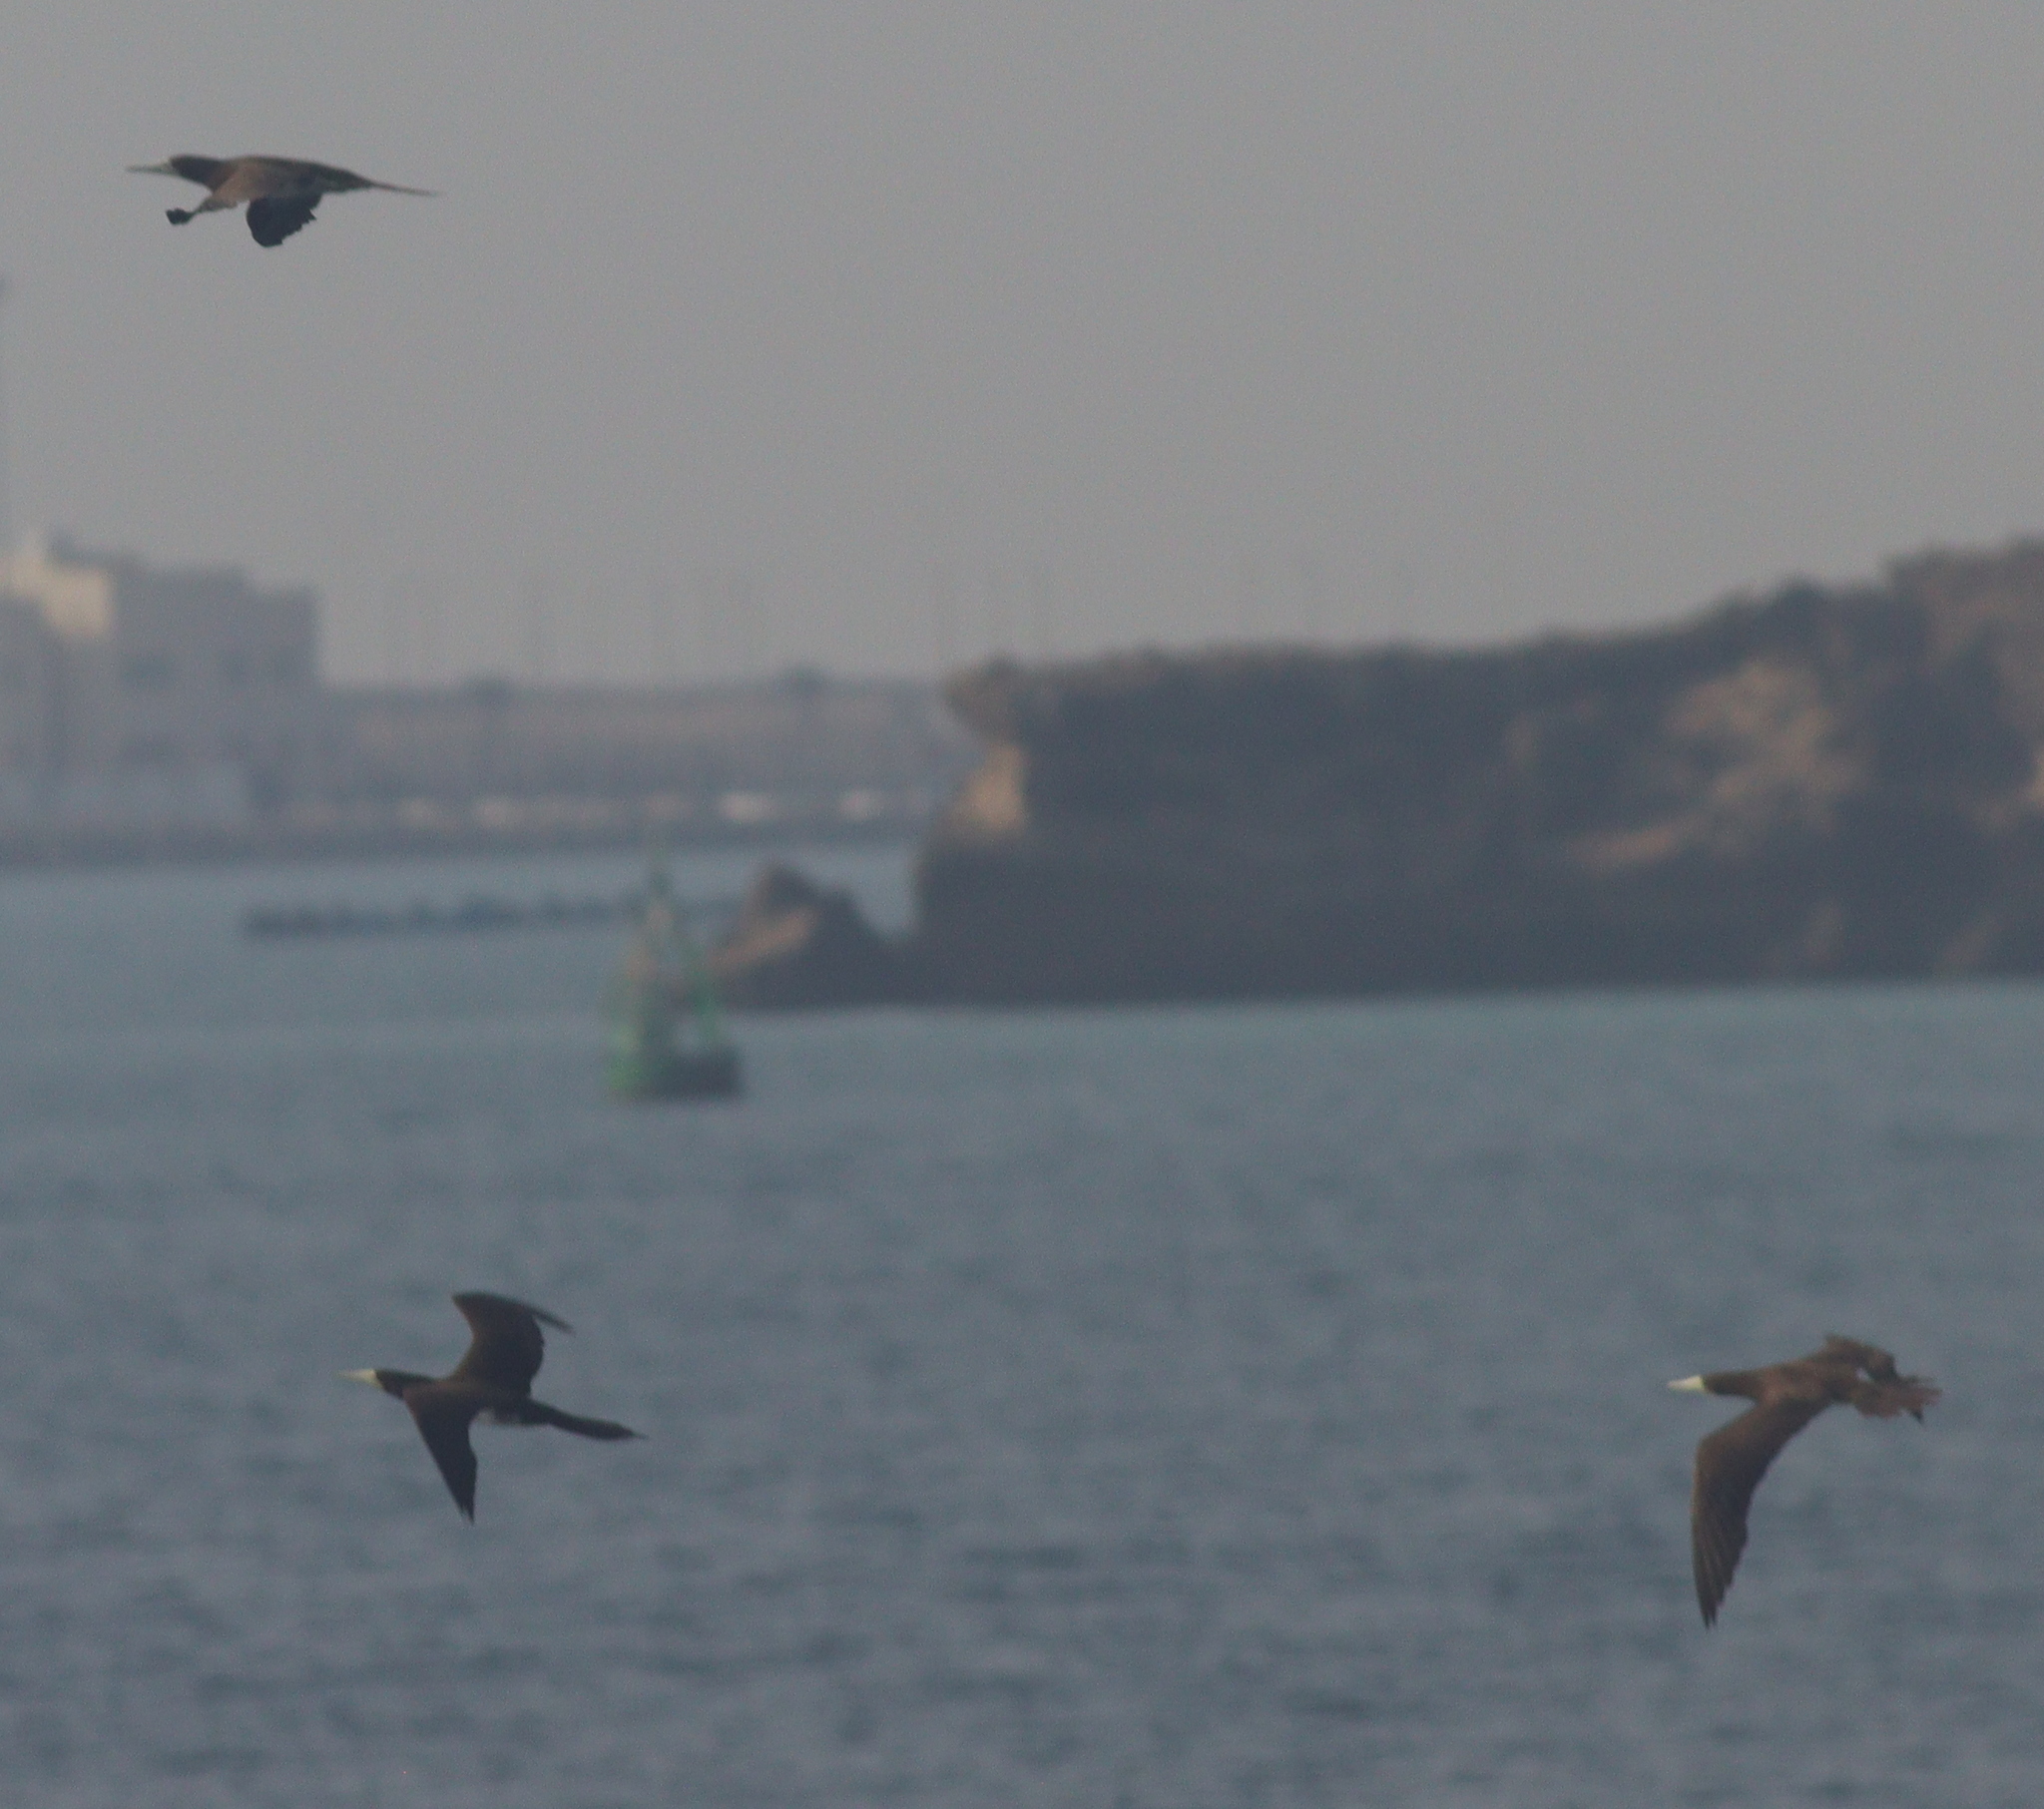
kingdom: Animalia
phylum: Chordata
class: Aves
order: Suliformes
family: Sulidae
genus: Sula
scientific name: Sula leucogaster
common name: Brown booby
